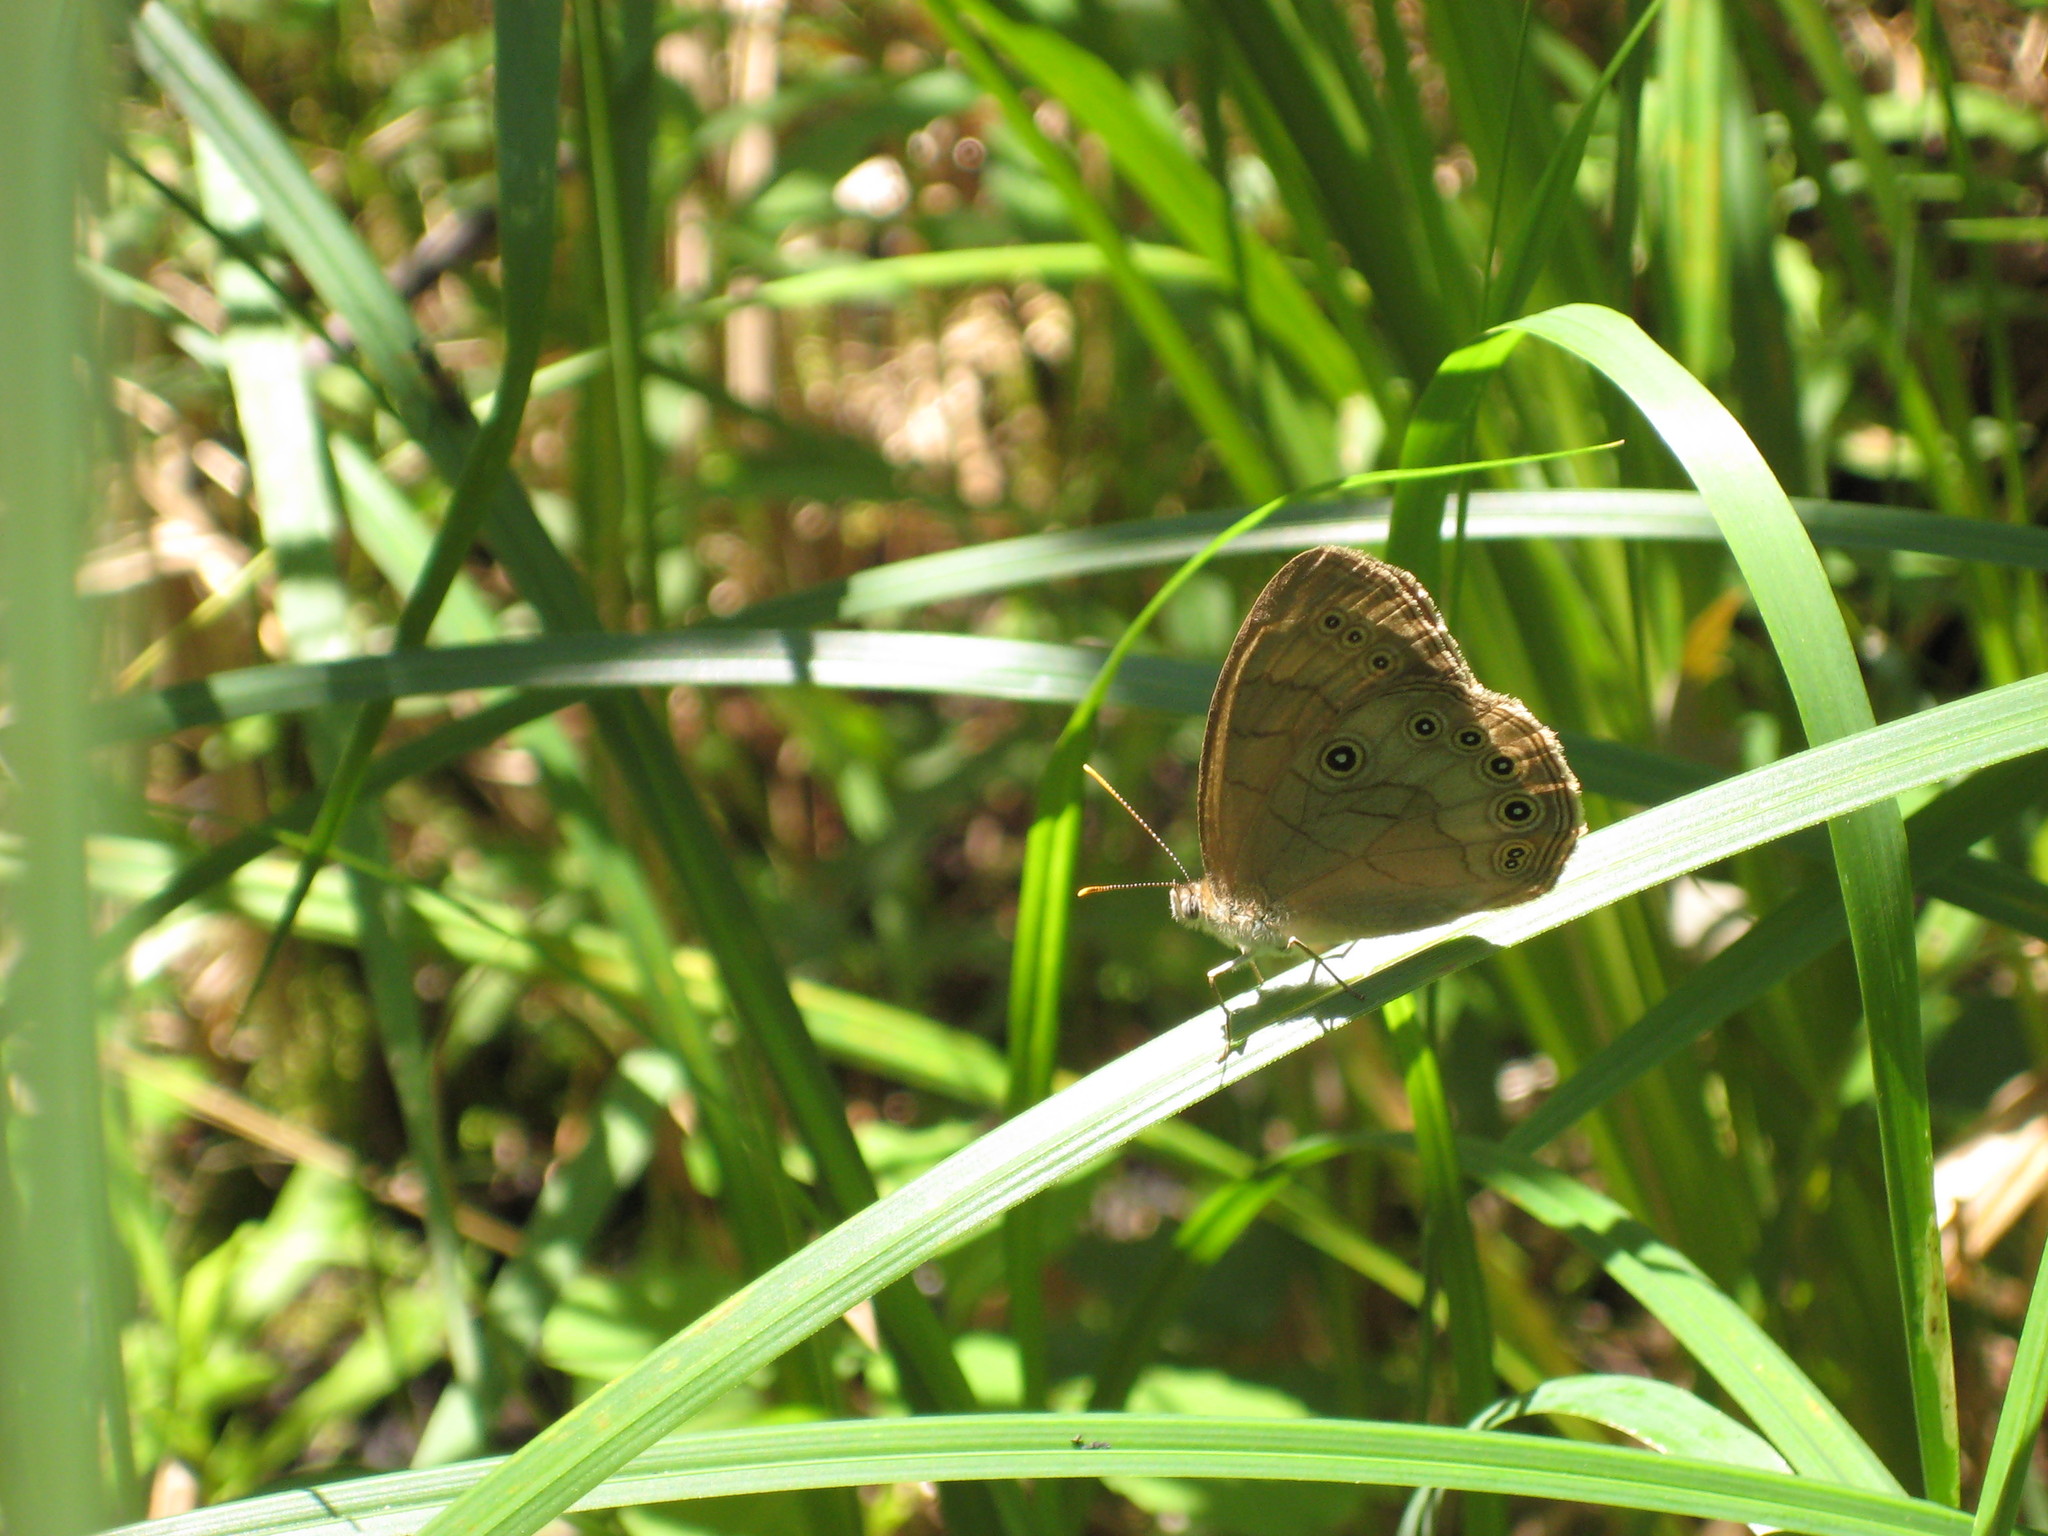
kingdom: Animalia
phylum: Arthropoda
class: Insecta
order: Lepidoptera
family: Nymphalidae
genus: Lethe
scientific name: Lethe eurydice
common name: Eyed brown
